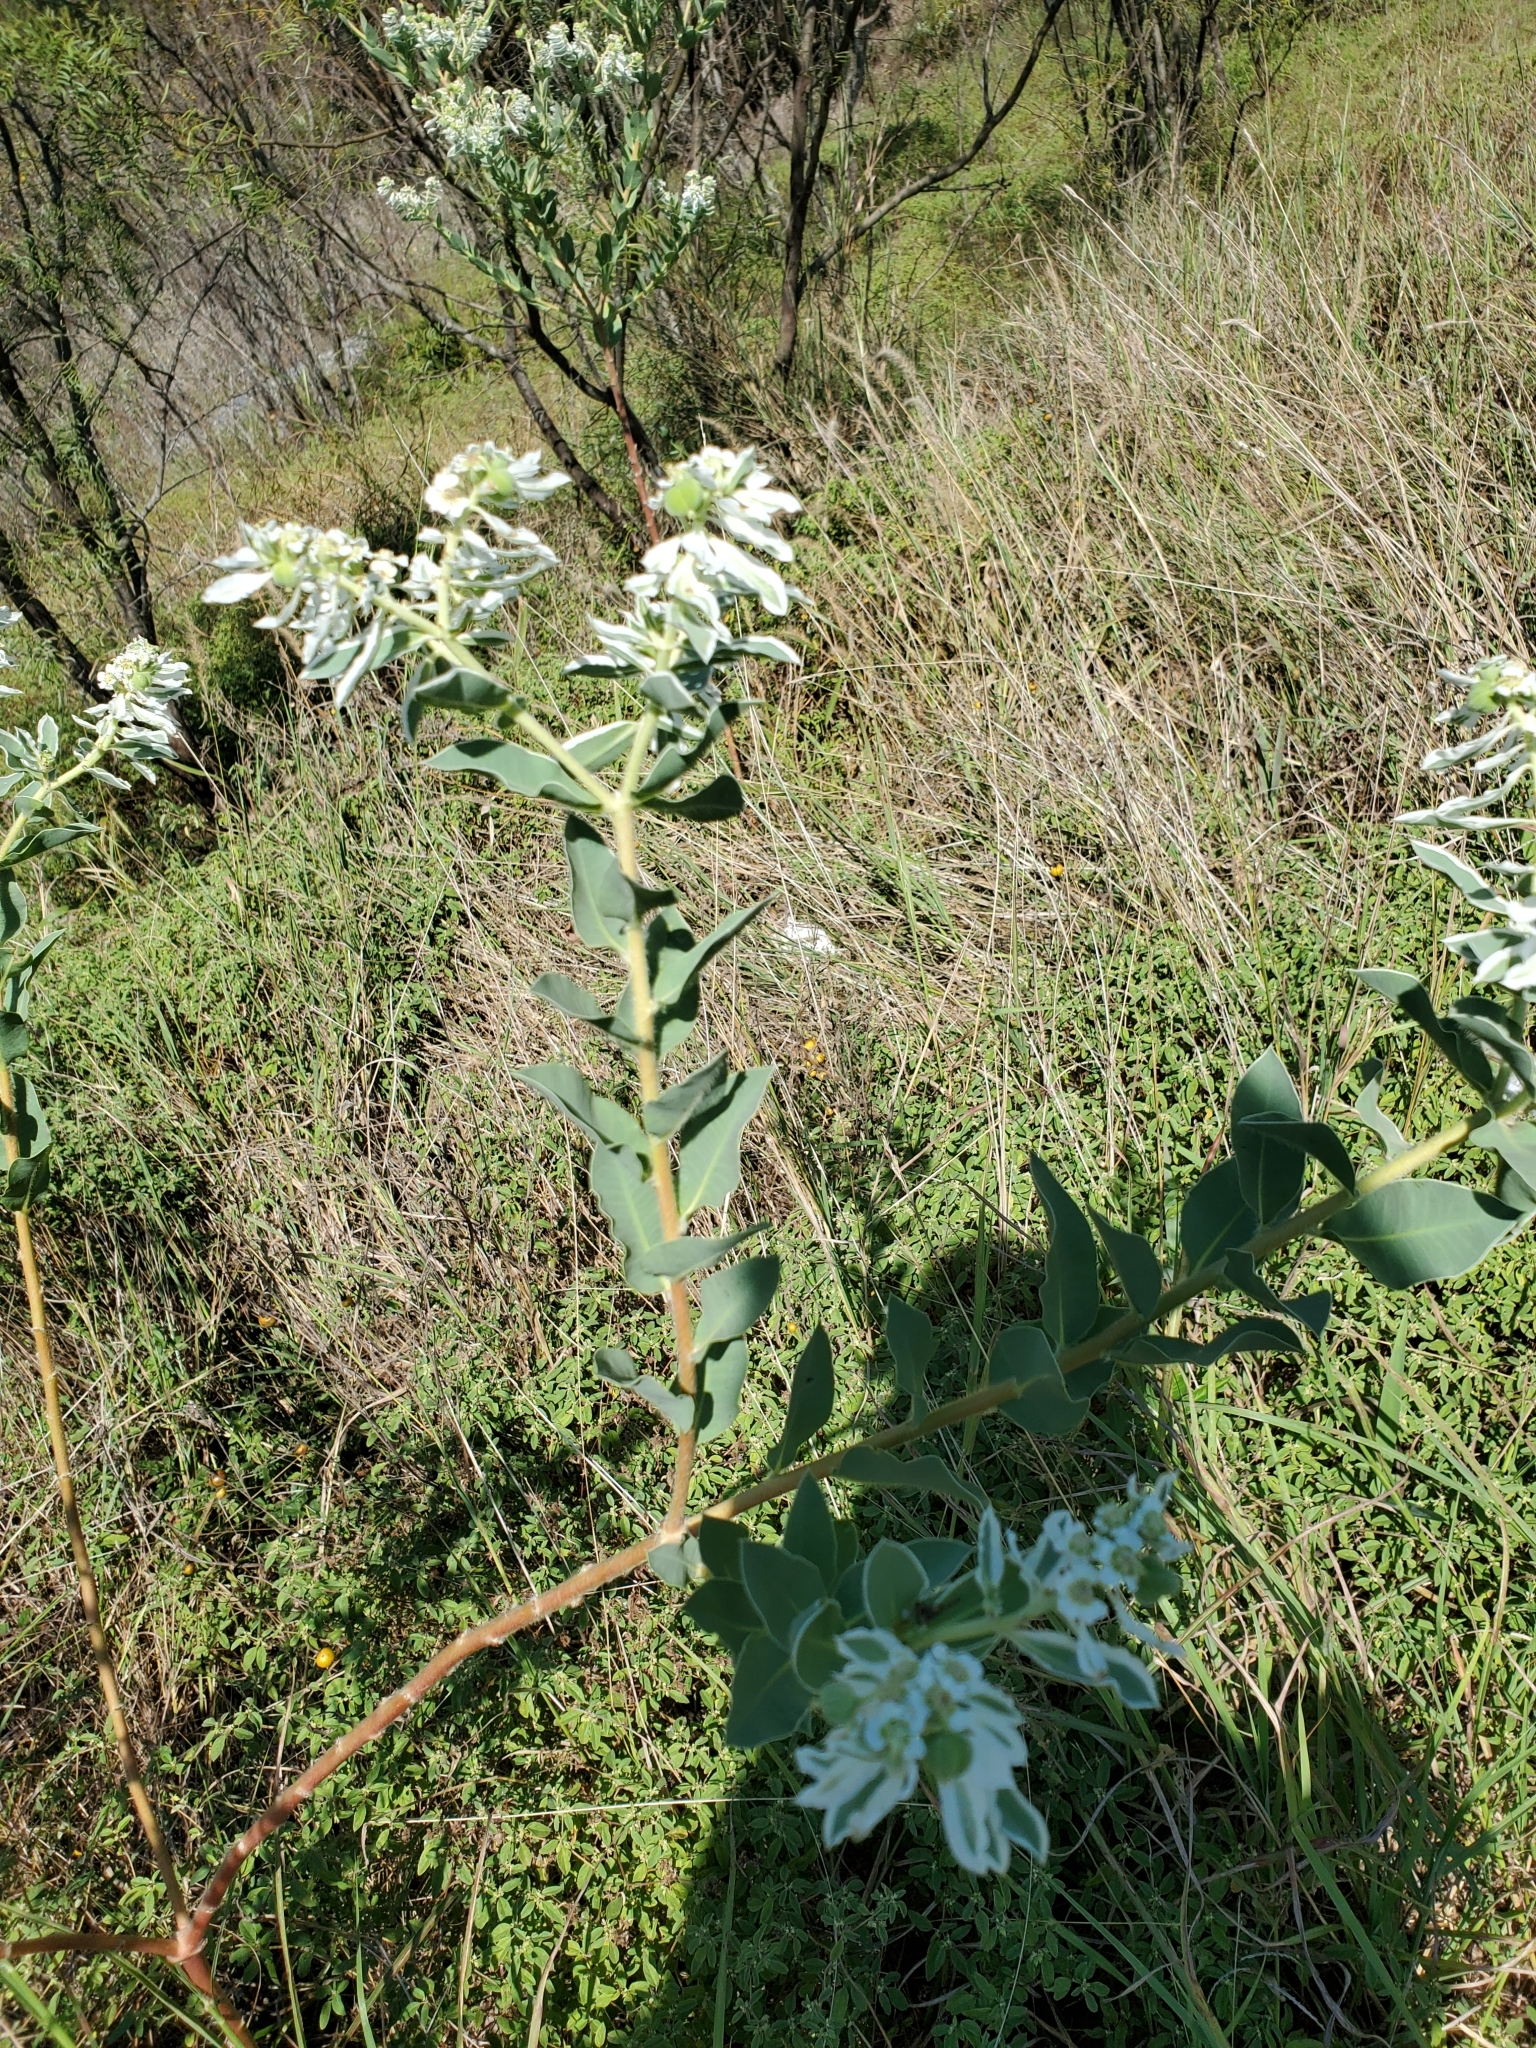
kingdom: Plantae
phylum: Tracheophyta
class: Magnoliopsida
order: Malpighiales
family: Euphorbiaceae
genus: Euphorbia
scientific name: Euphorbia marginata
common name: Ghostweed
